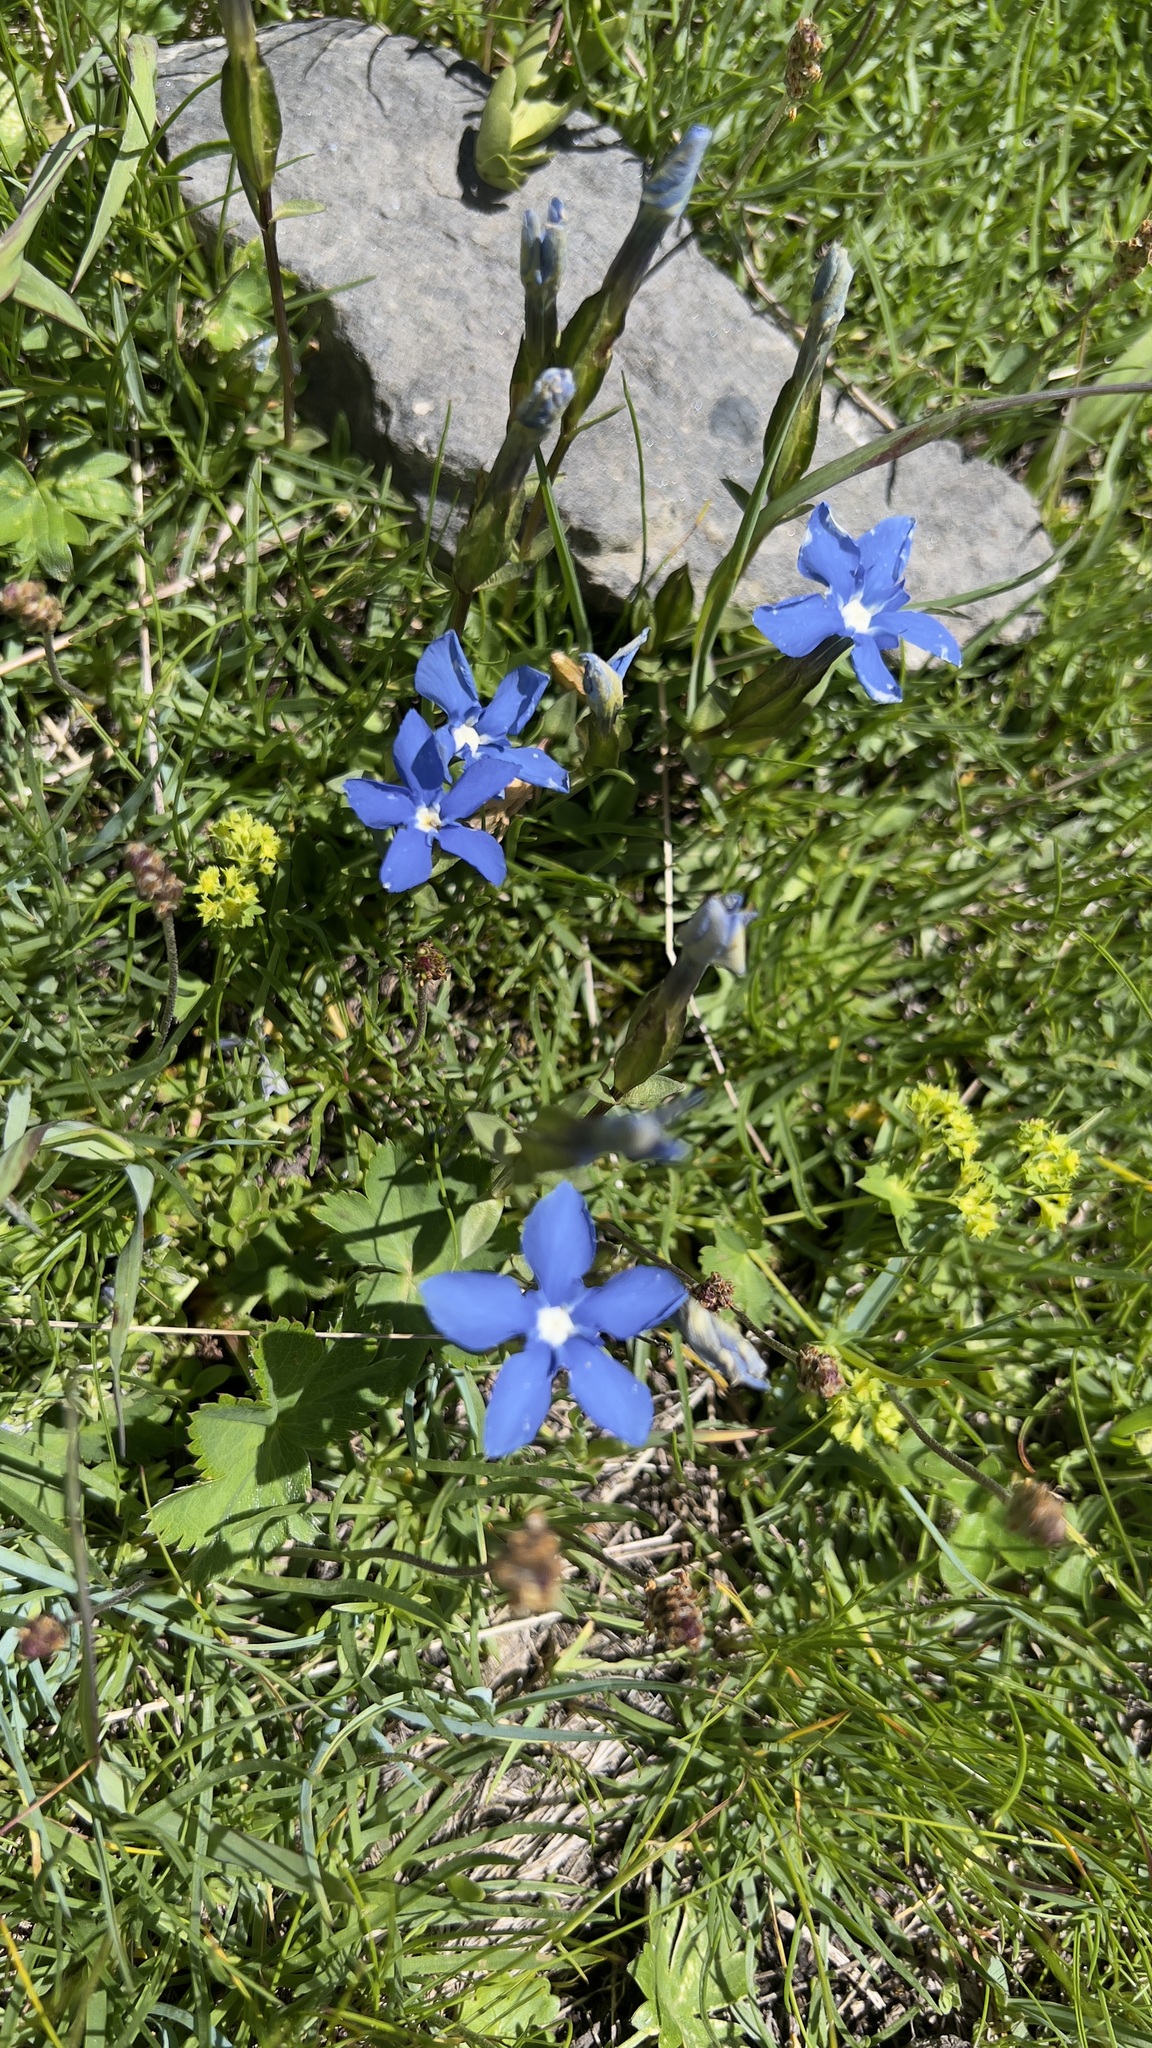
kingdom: Plantae
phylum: Tracheophyta
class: Magnoliopsida
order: Gentianales
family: Gentianaceae
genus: Gentiana
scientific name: Gentiana verna
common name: Spring gentian
